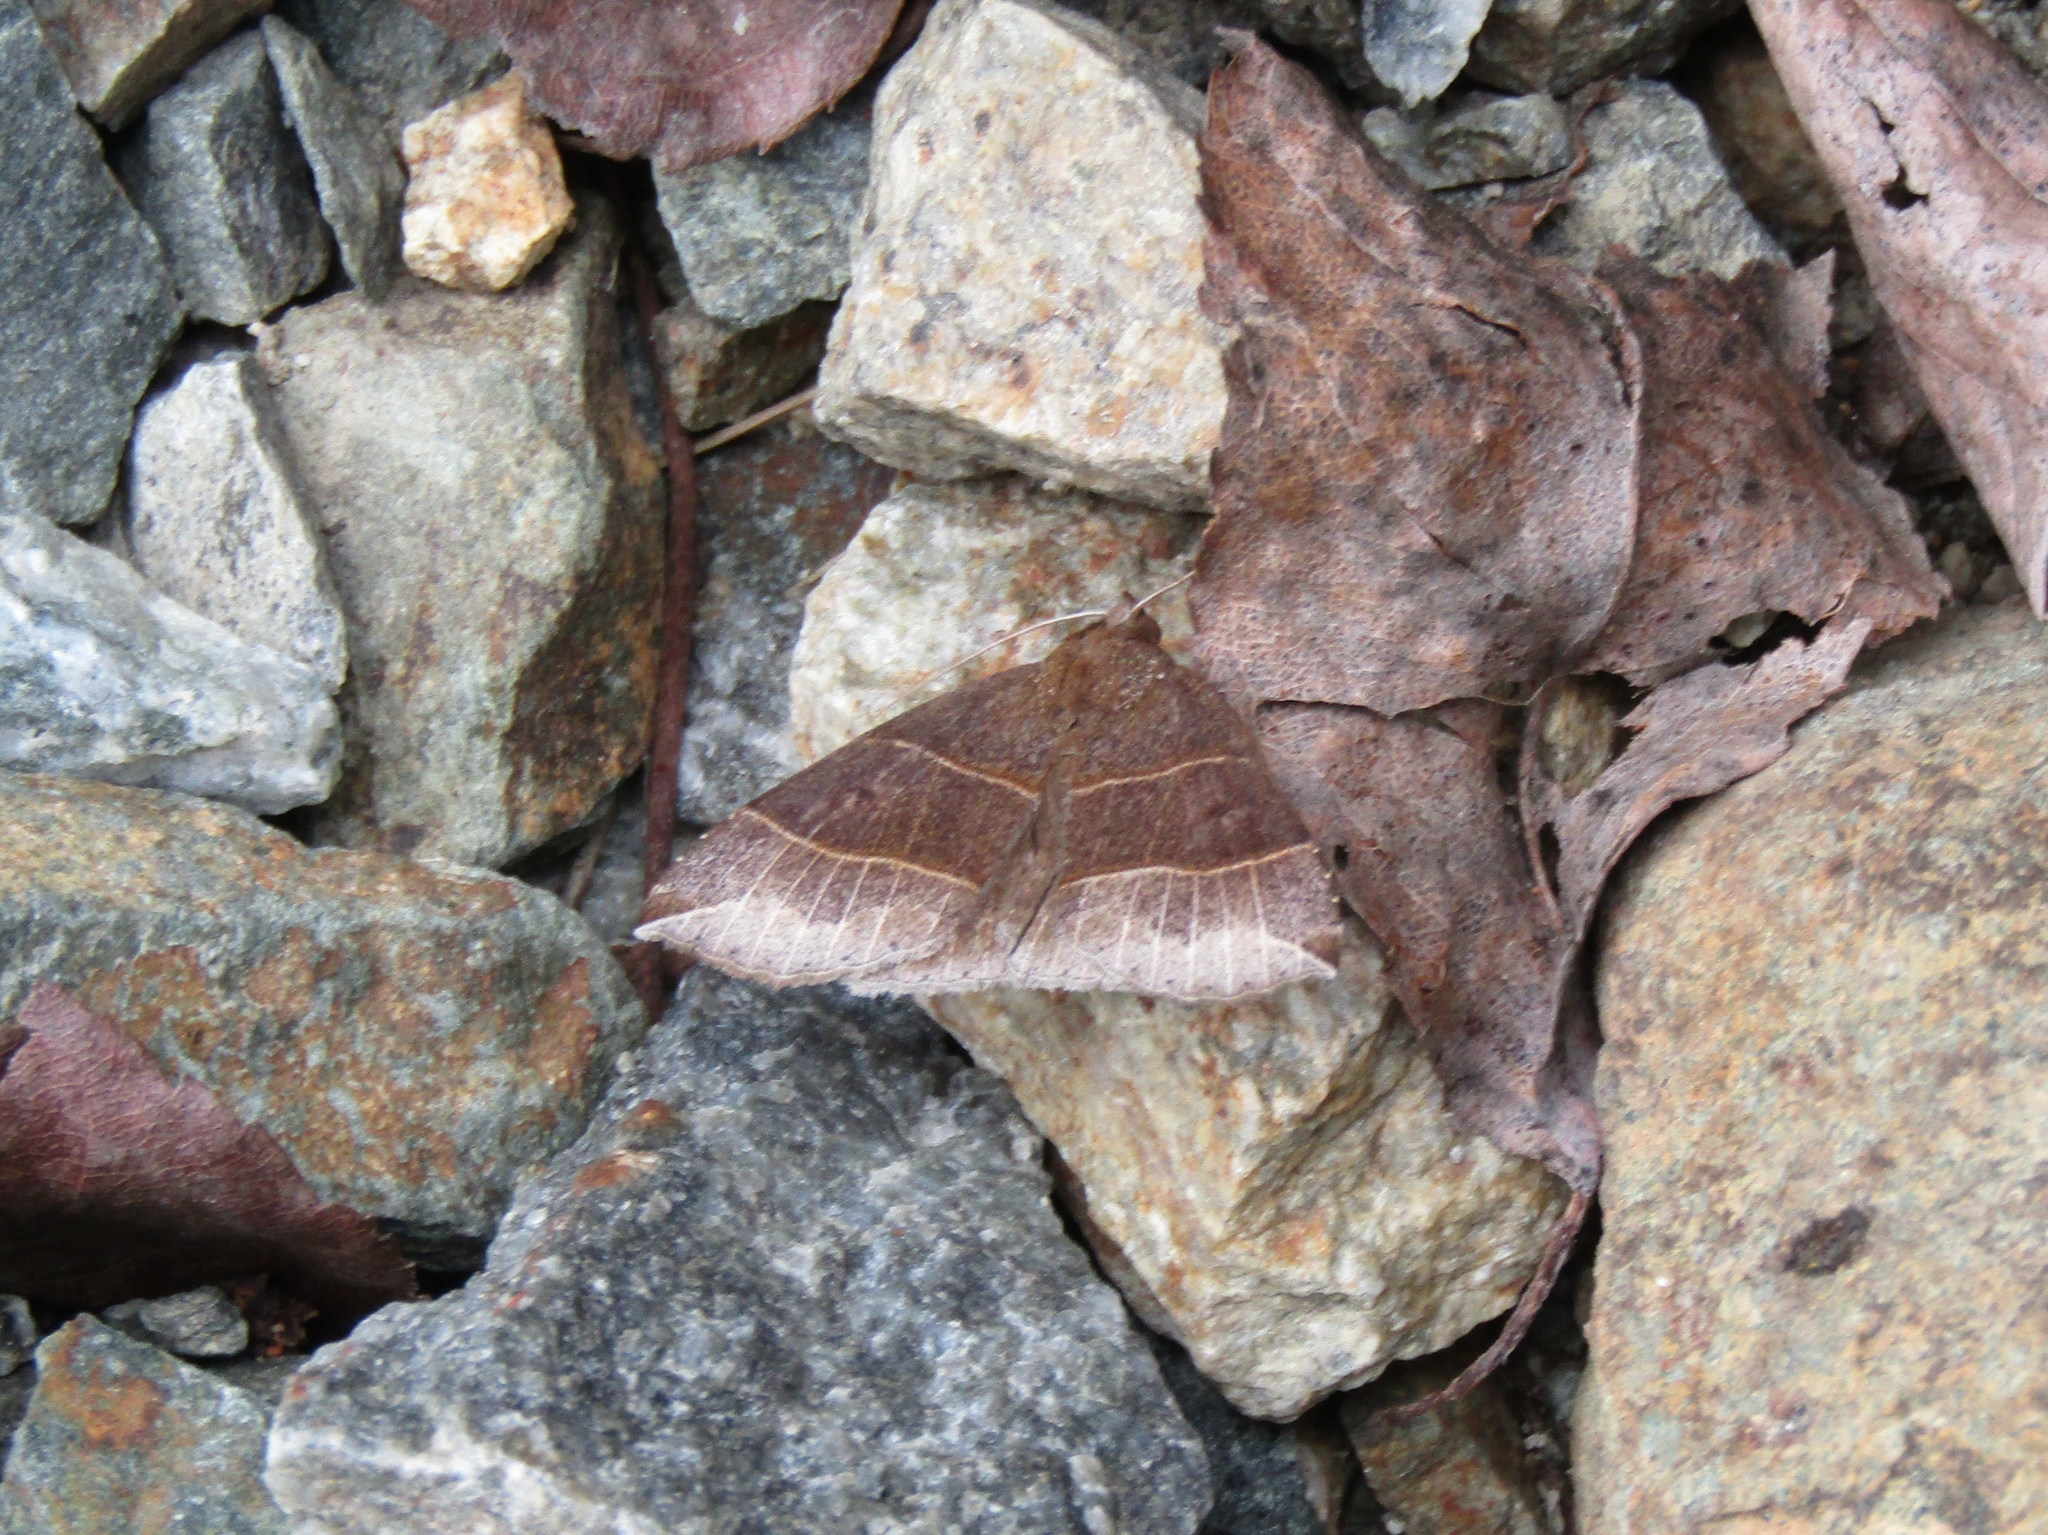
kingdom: Animalia
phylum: Arthropoda
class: Insecta
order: Lepidoptera
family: Erebidae
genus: Parallelia
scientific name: Parallelia bistriaris
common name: Maple looper moth
